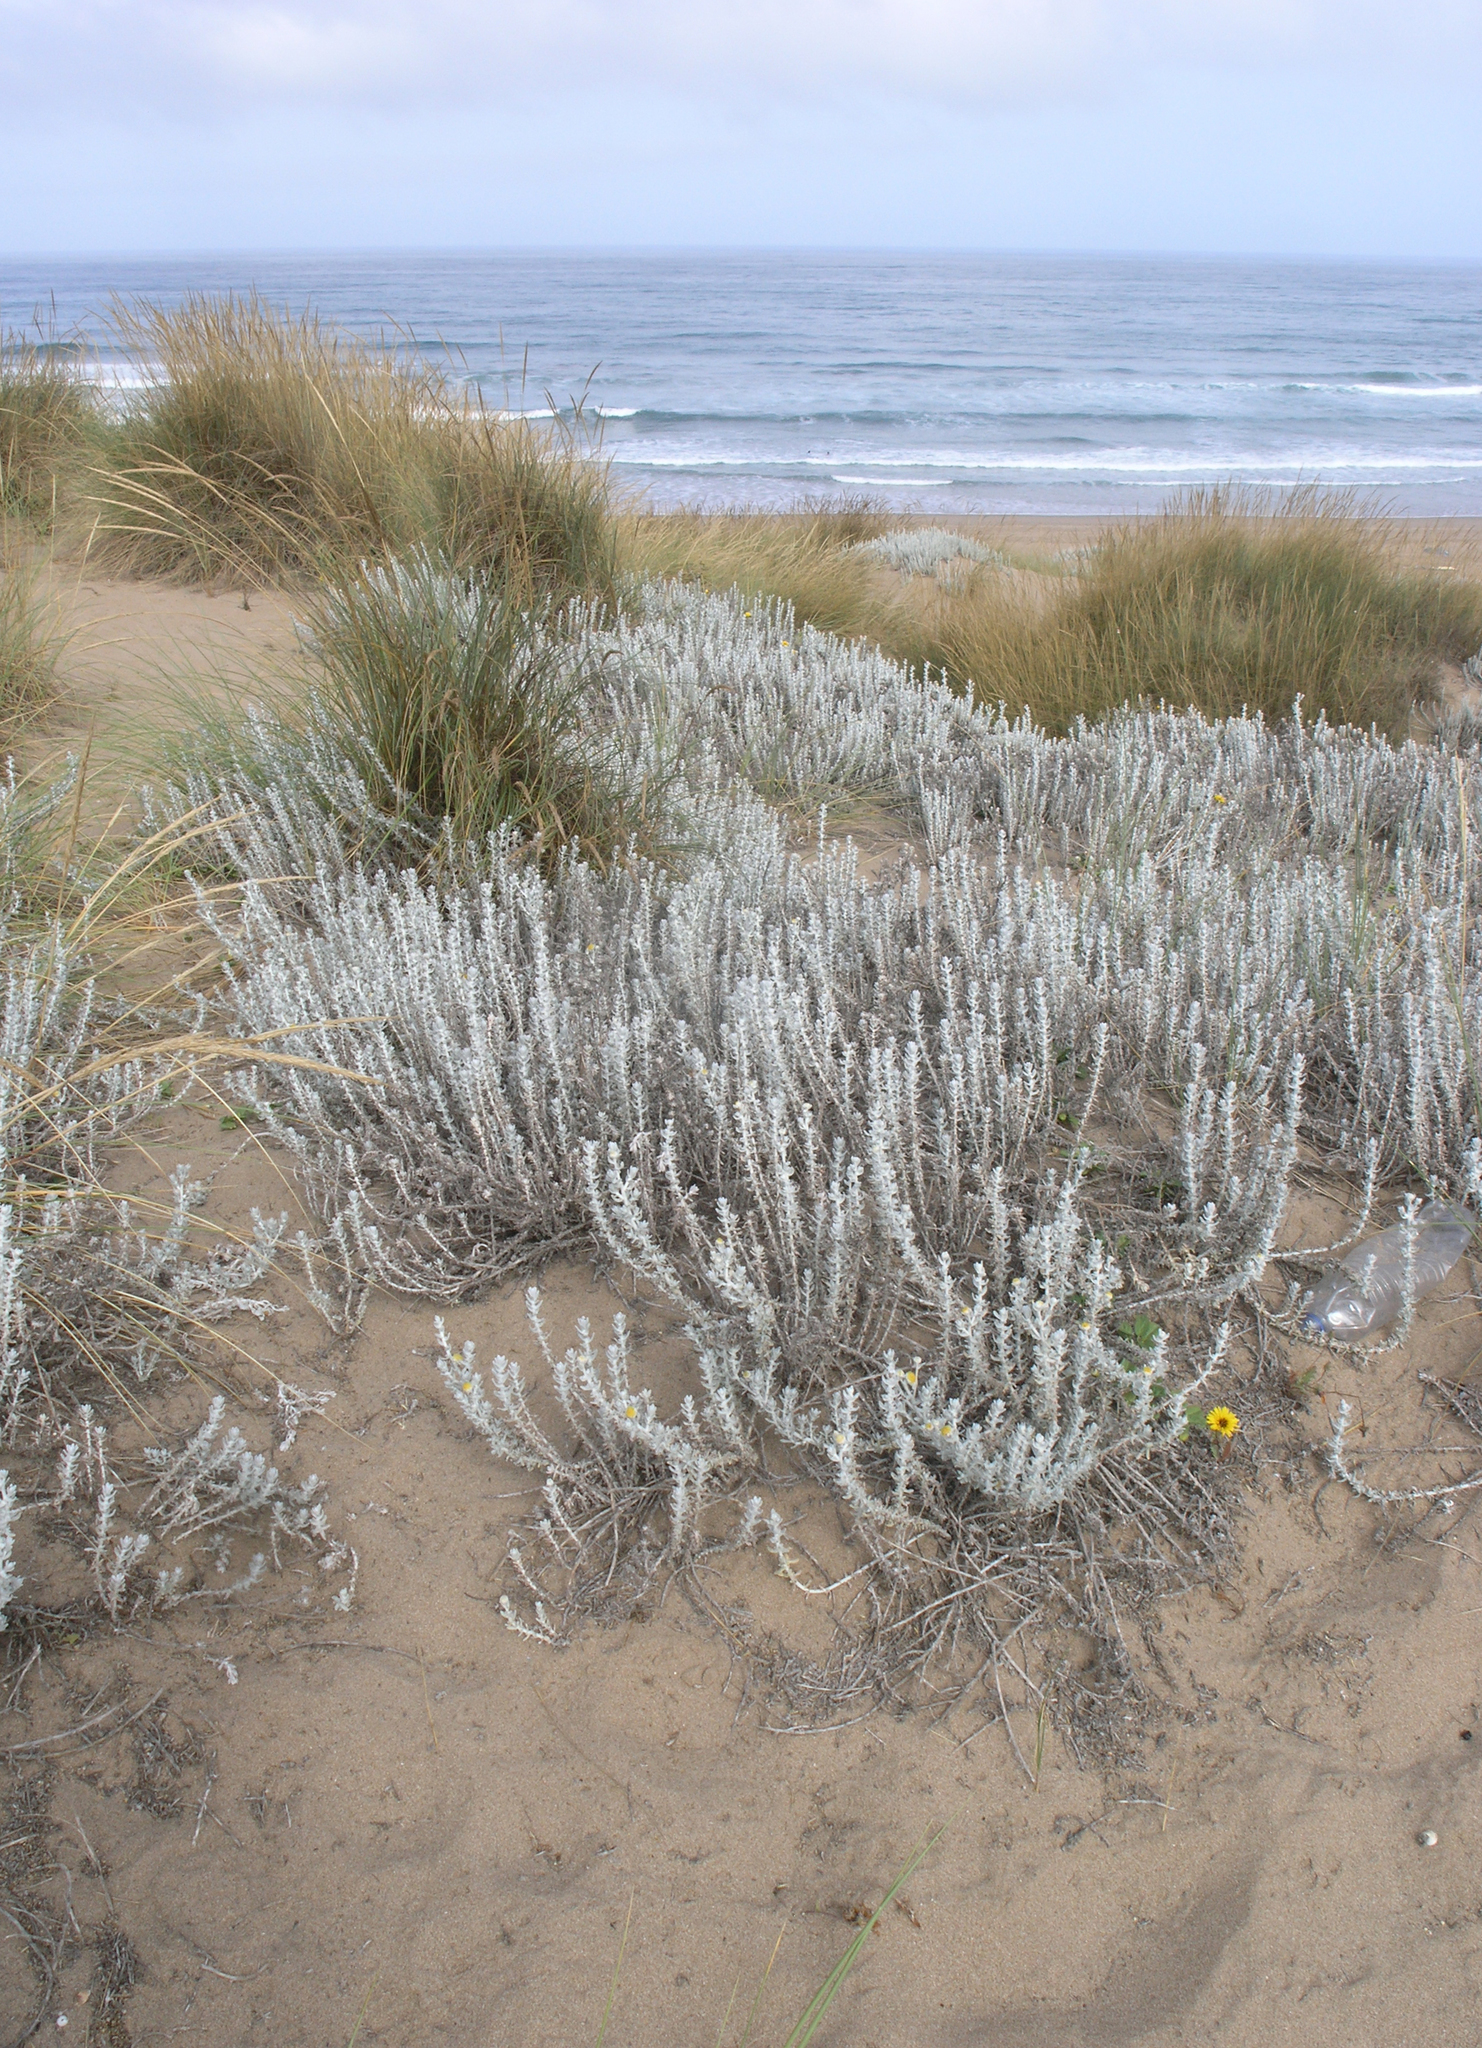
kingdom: Plantae
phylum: Tracheophyta
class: Magnoliopsida
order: Asterales
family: Asteraceae
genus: Achillea
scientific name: Achillea maritima
